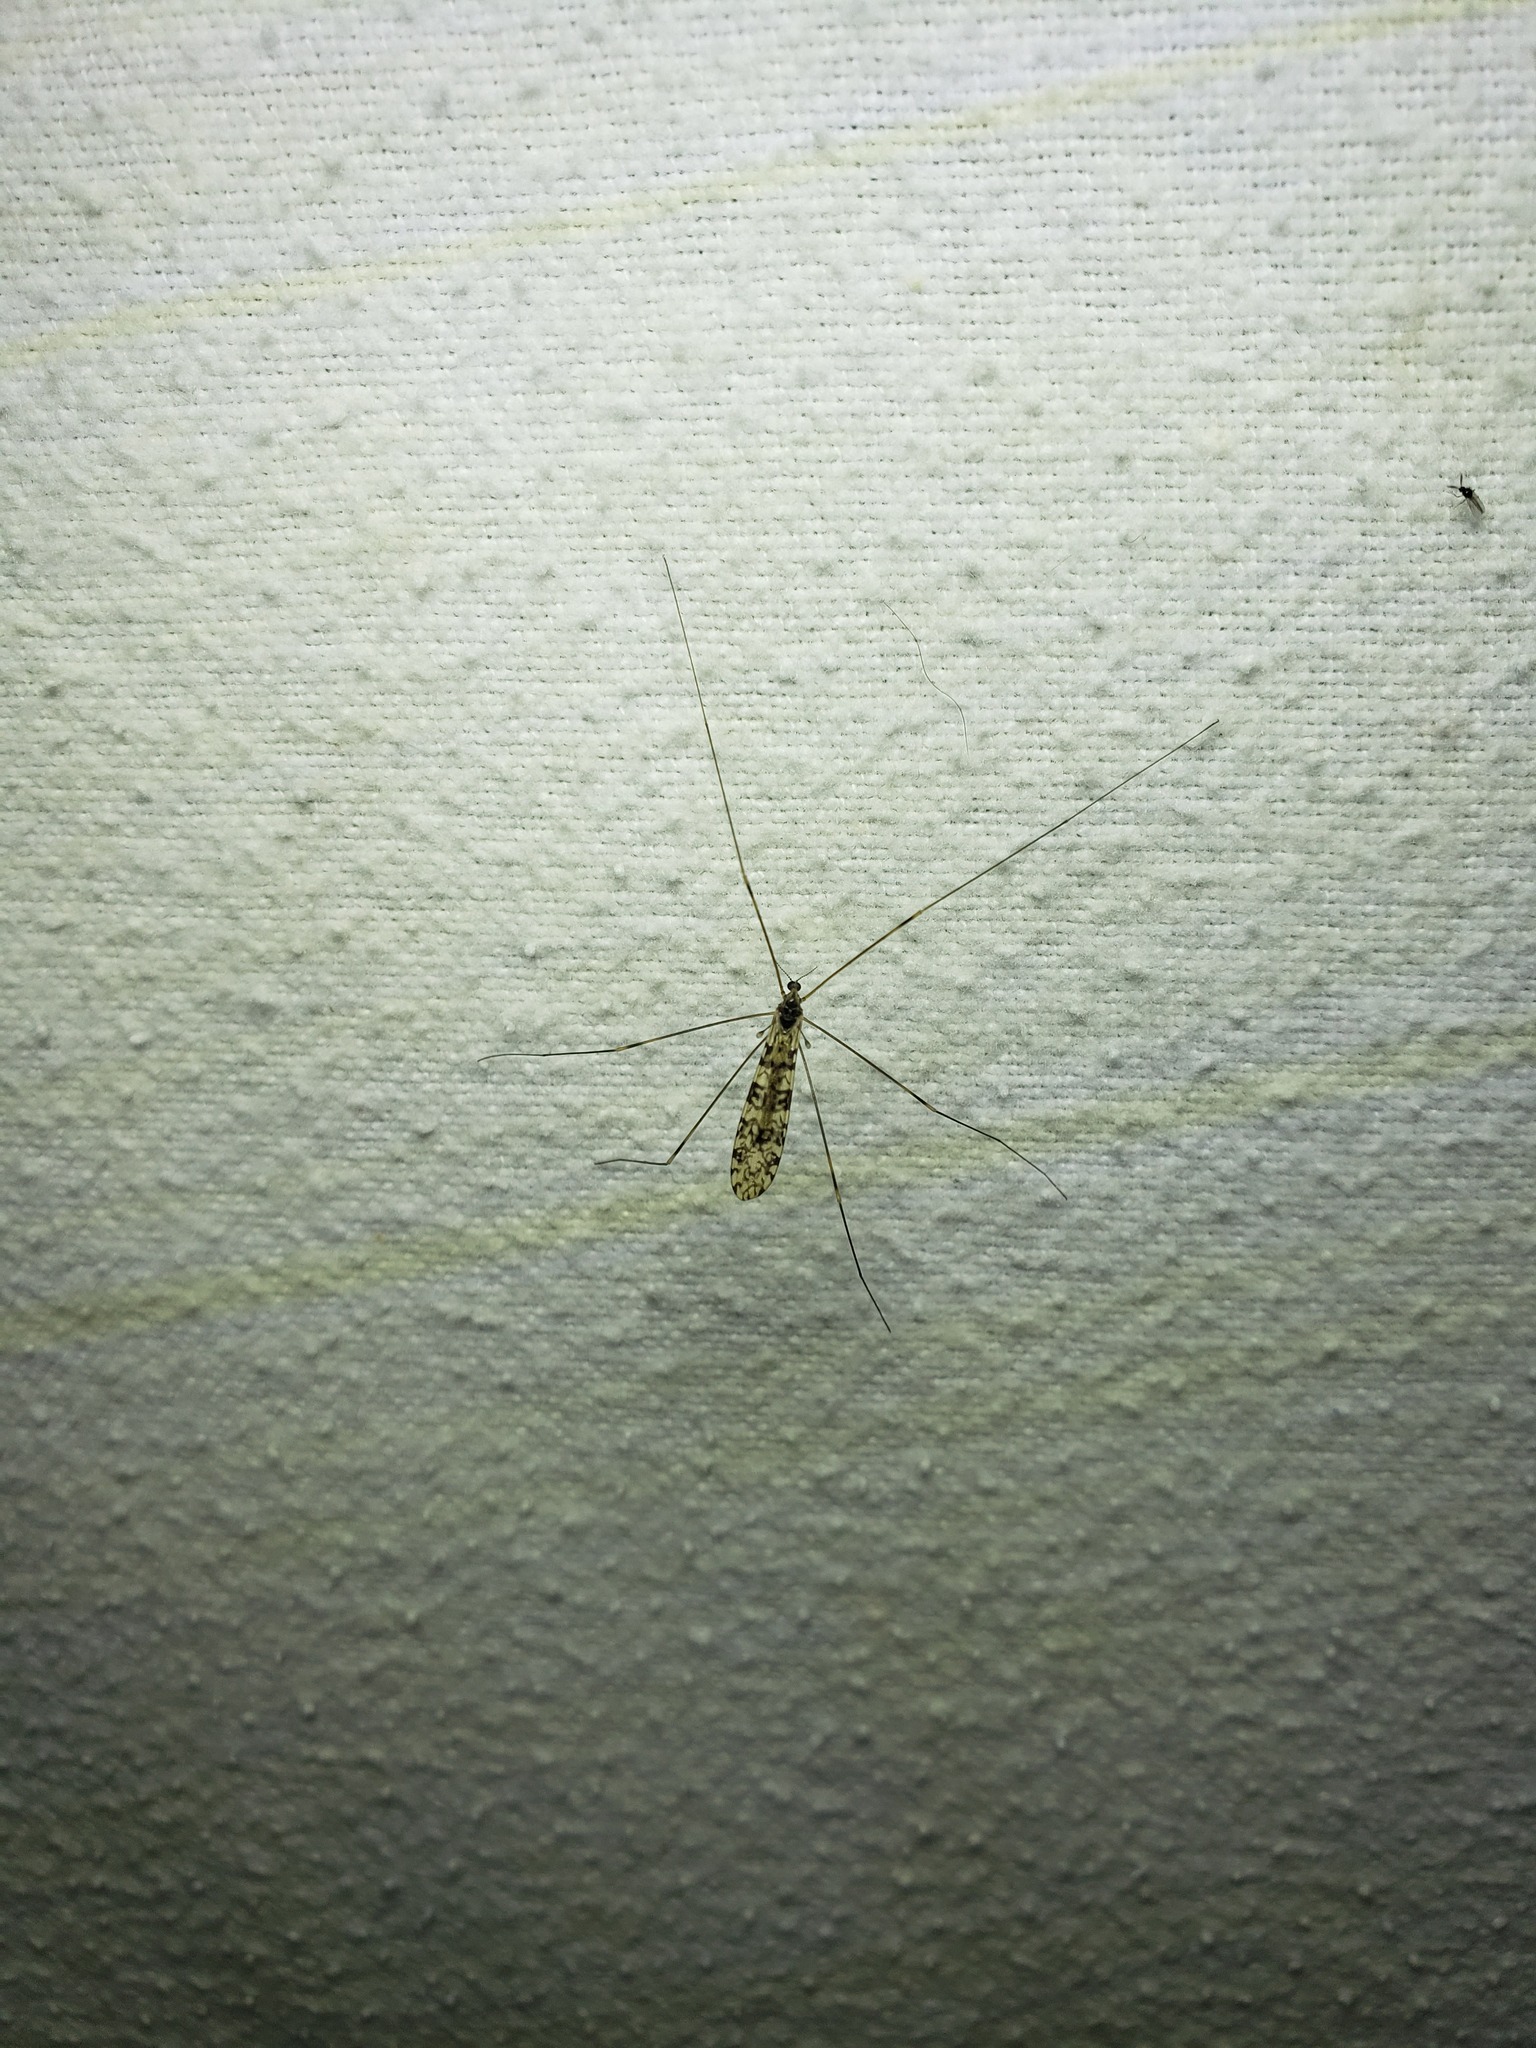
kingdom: Animalia
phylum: Arthropoda
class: Insecta
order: Diptera
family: Limoniidae
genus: Limonia
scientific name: Limonia annulata
